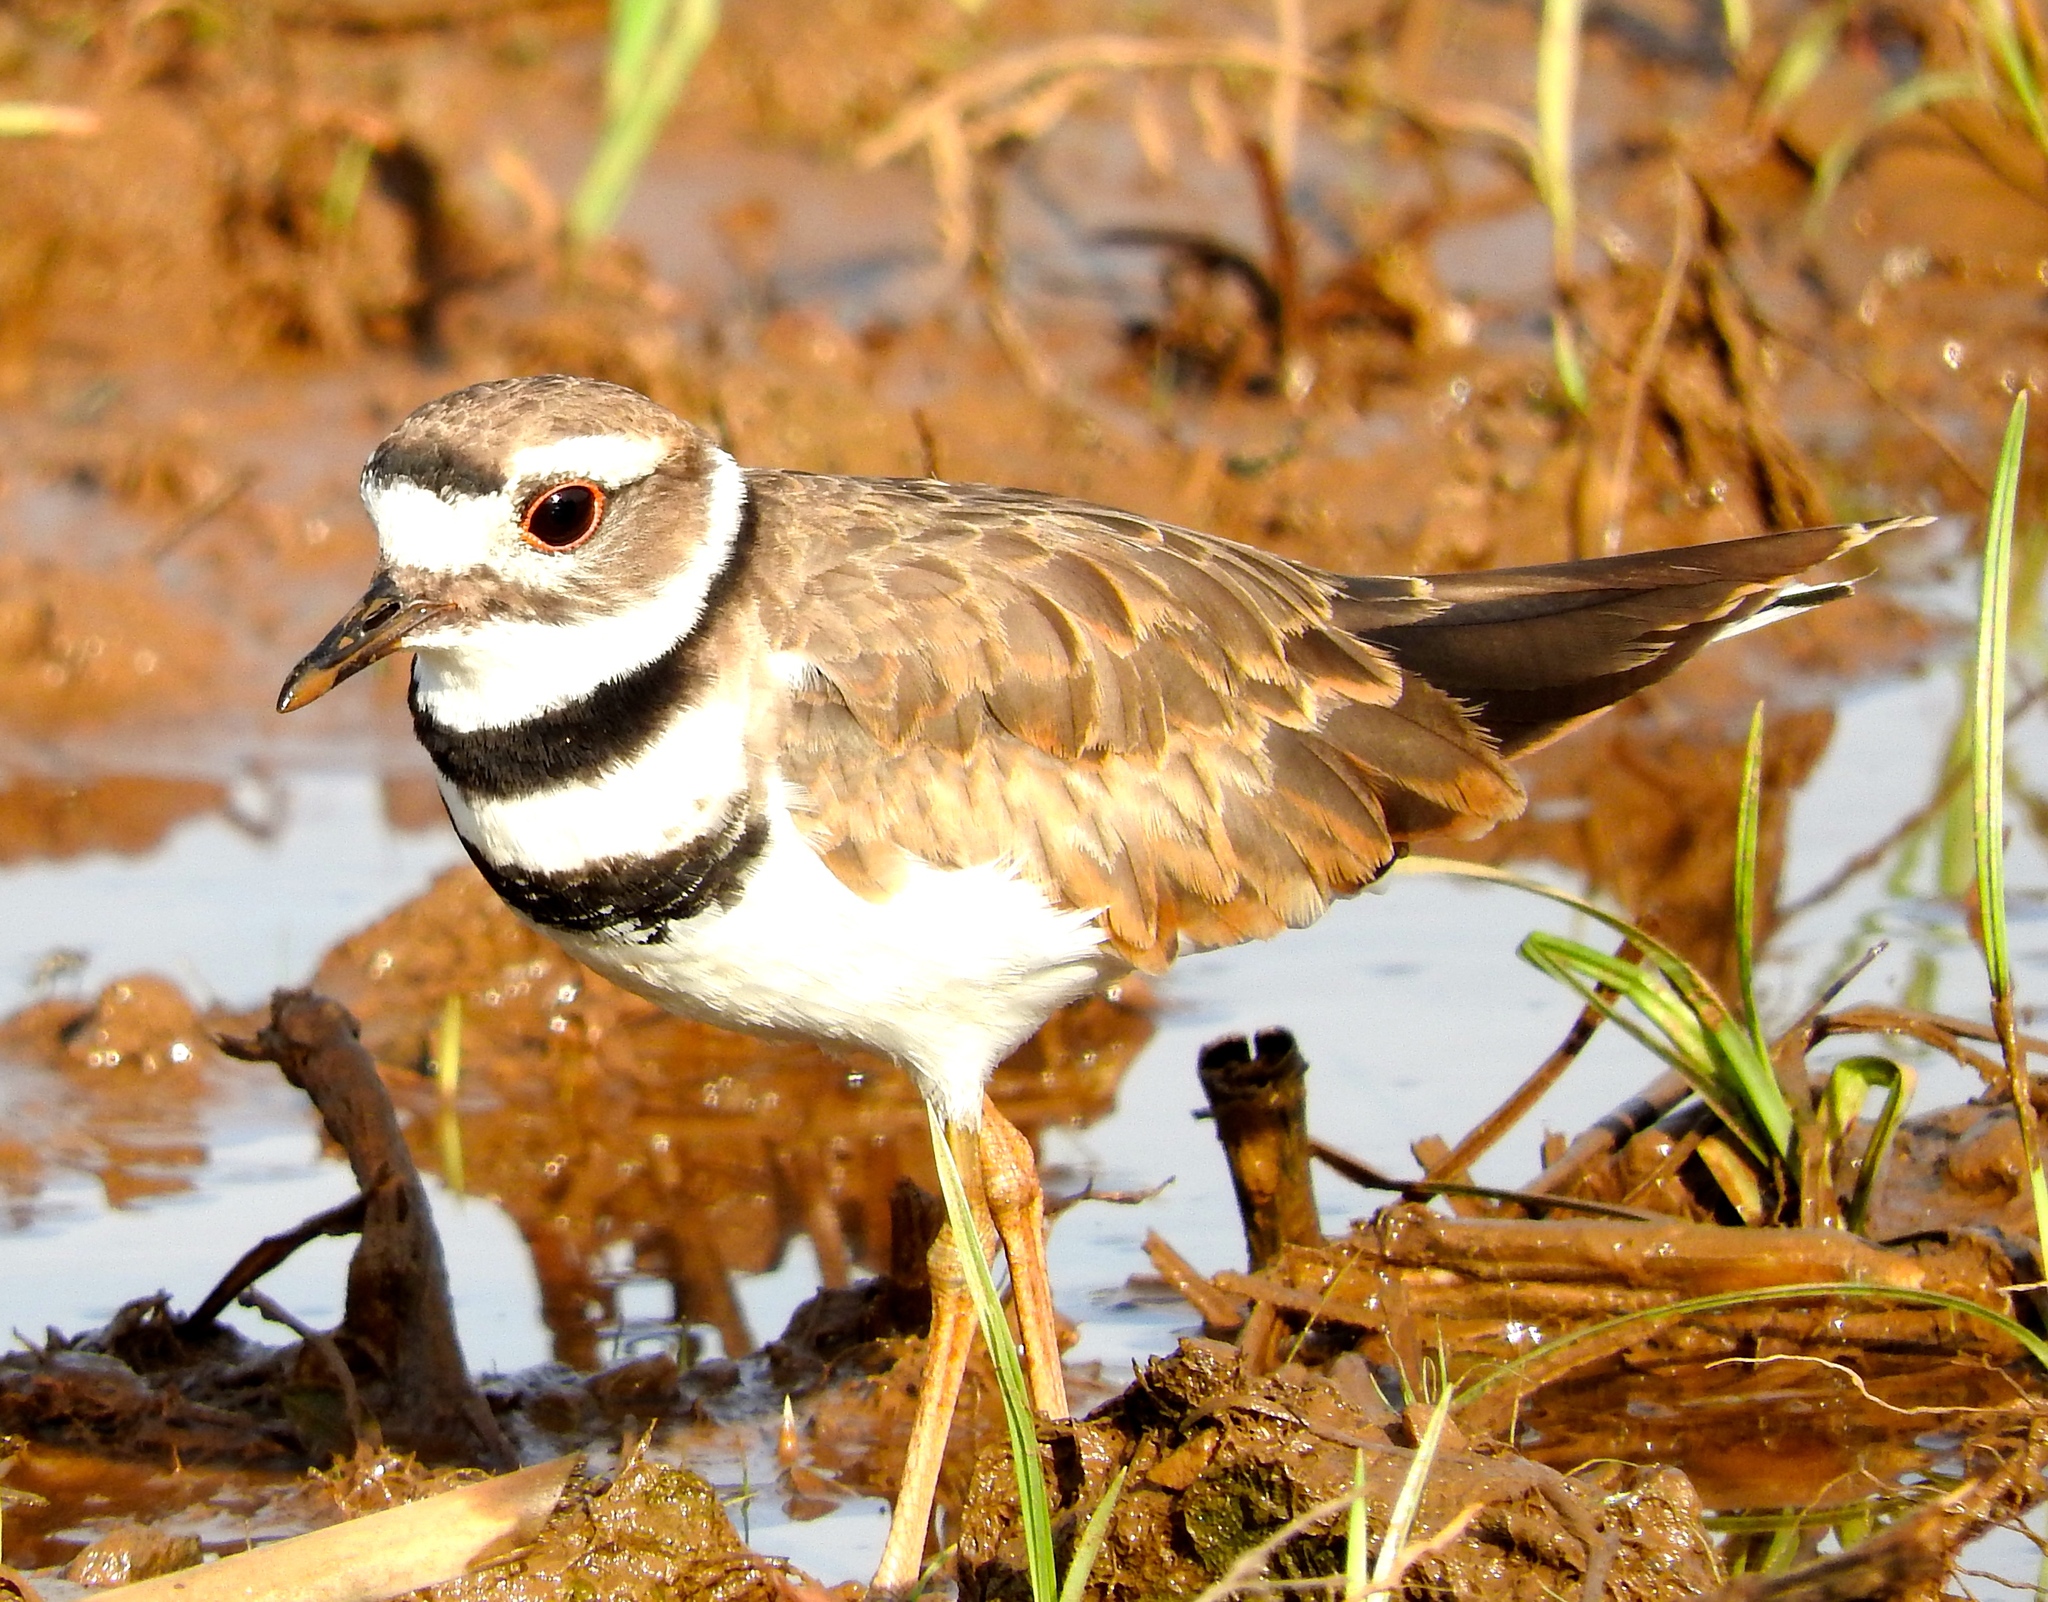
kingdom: Animalia
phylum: Chordata
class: Aves
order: Charadriiformes
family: Charadriidae
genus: Charadrius
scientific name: Charadrius vociferus
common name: Killdeer
